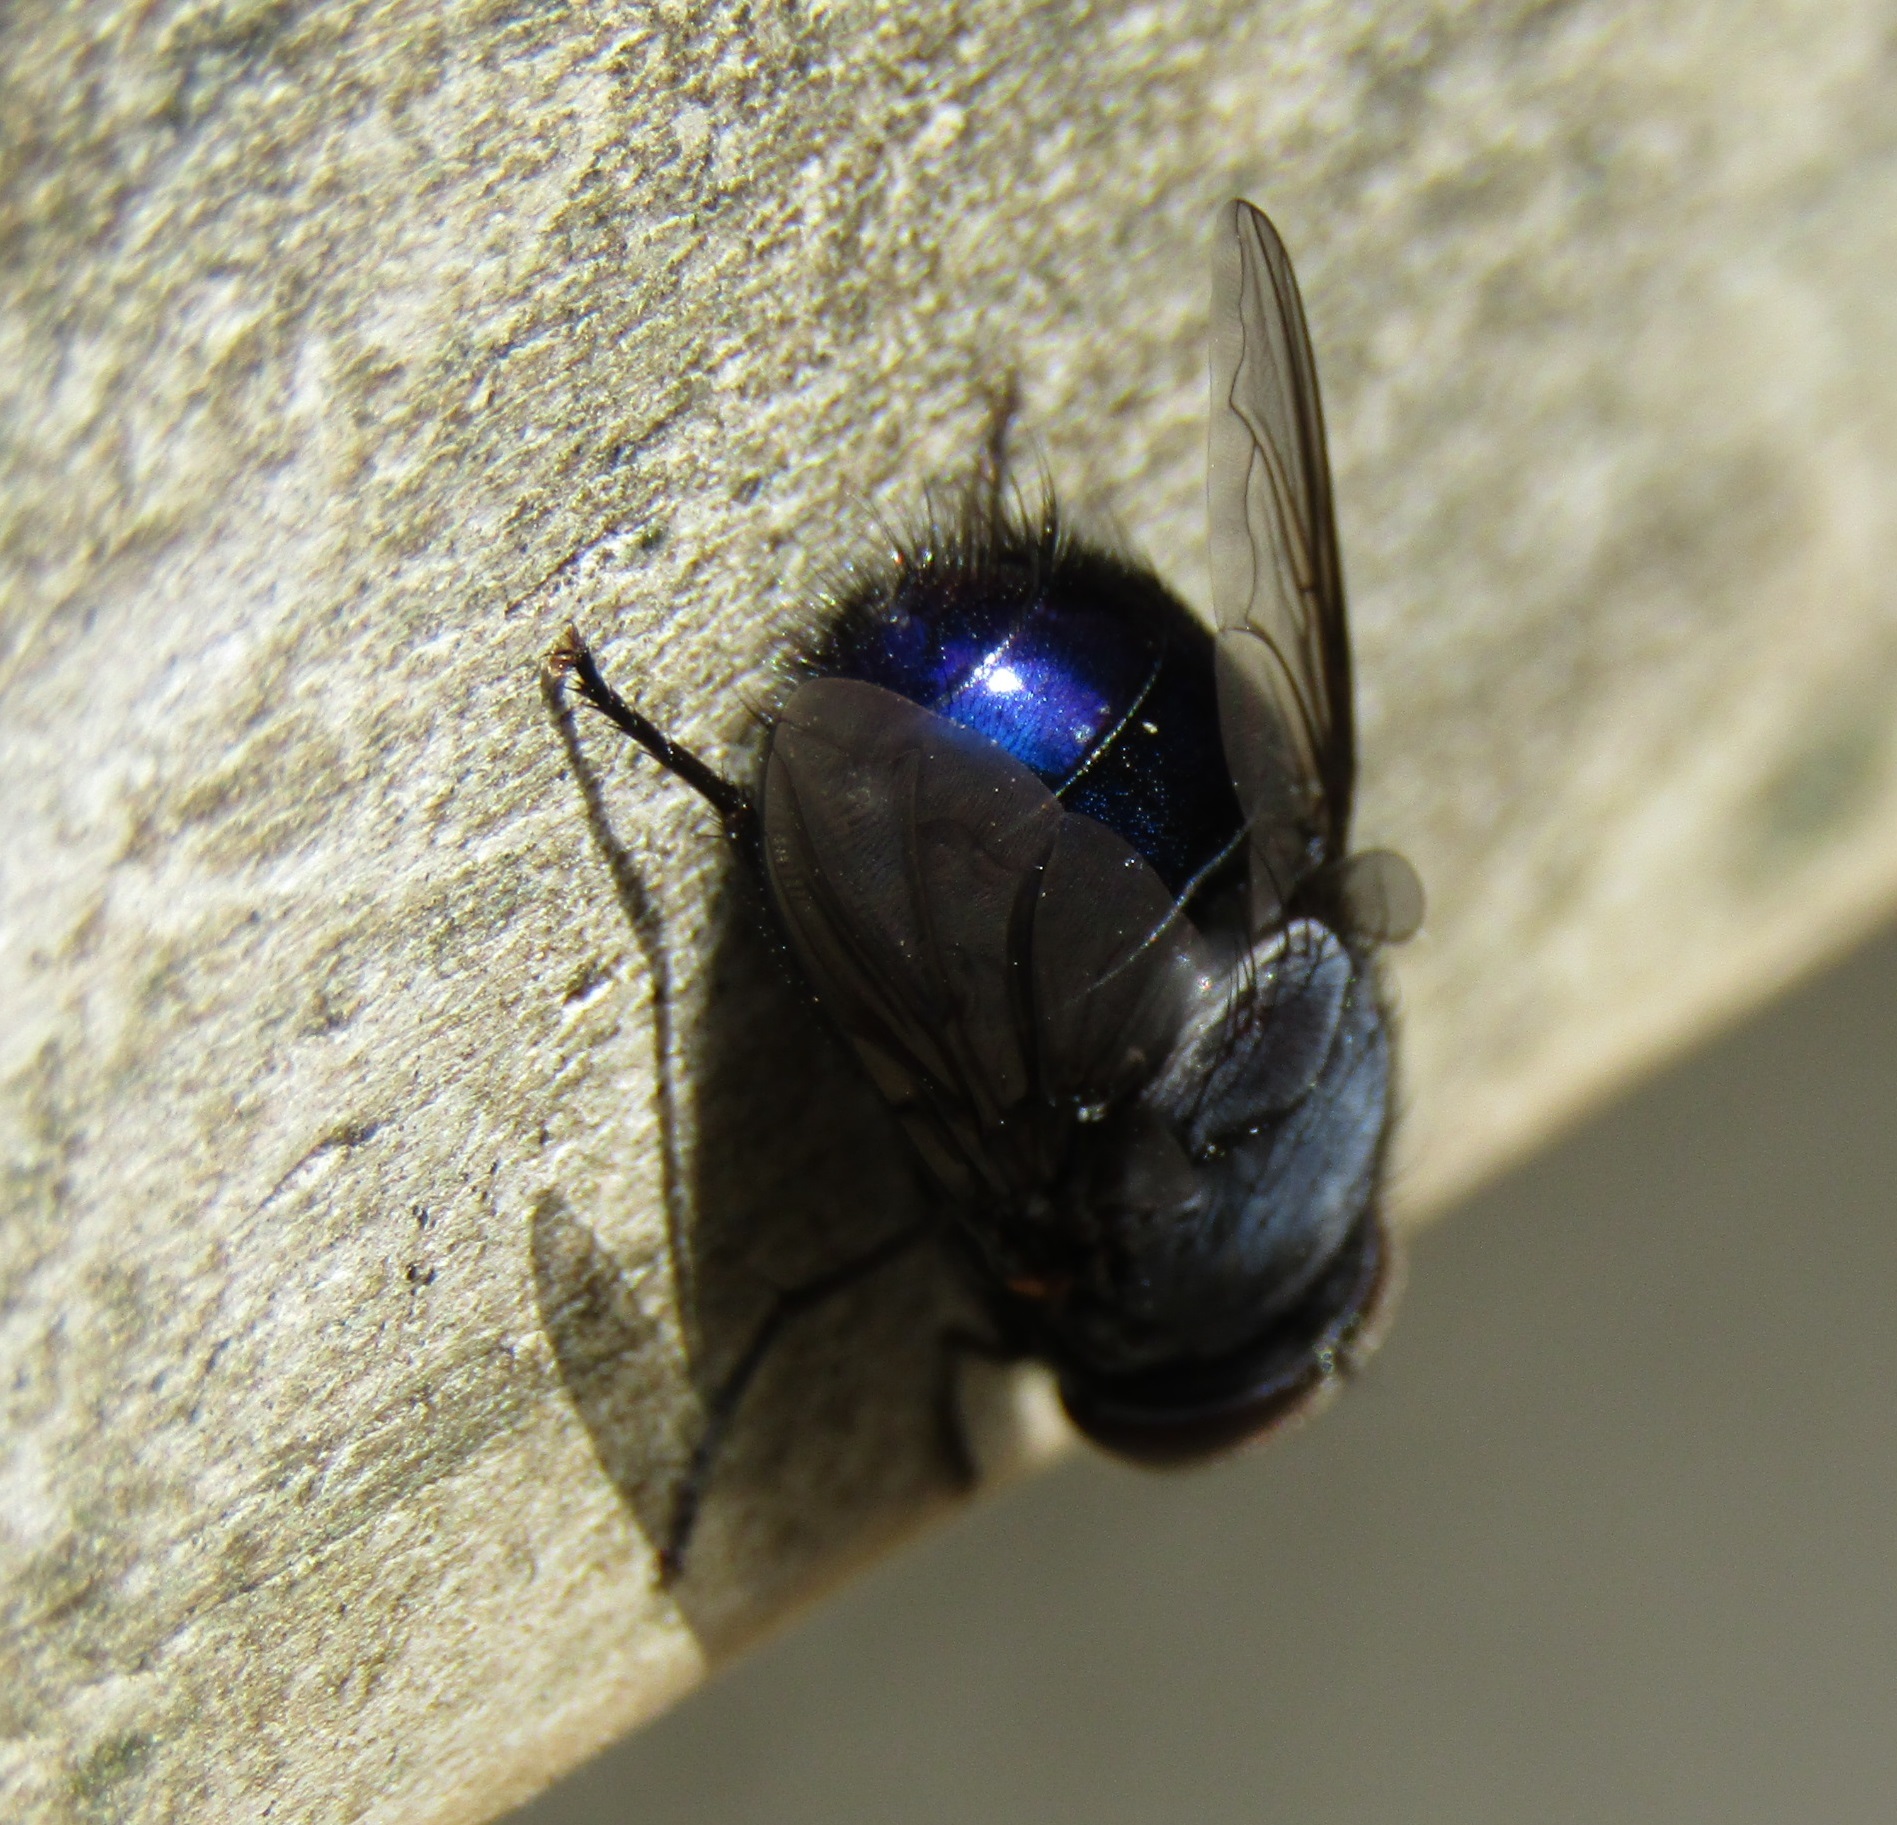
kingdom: Animalia
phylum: Arthropoda
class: Insecta
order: Diptera
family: Calliphoridae
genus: Calliphora
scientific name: Calliphora quadrimaculata
